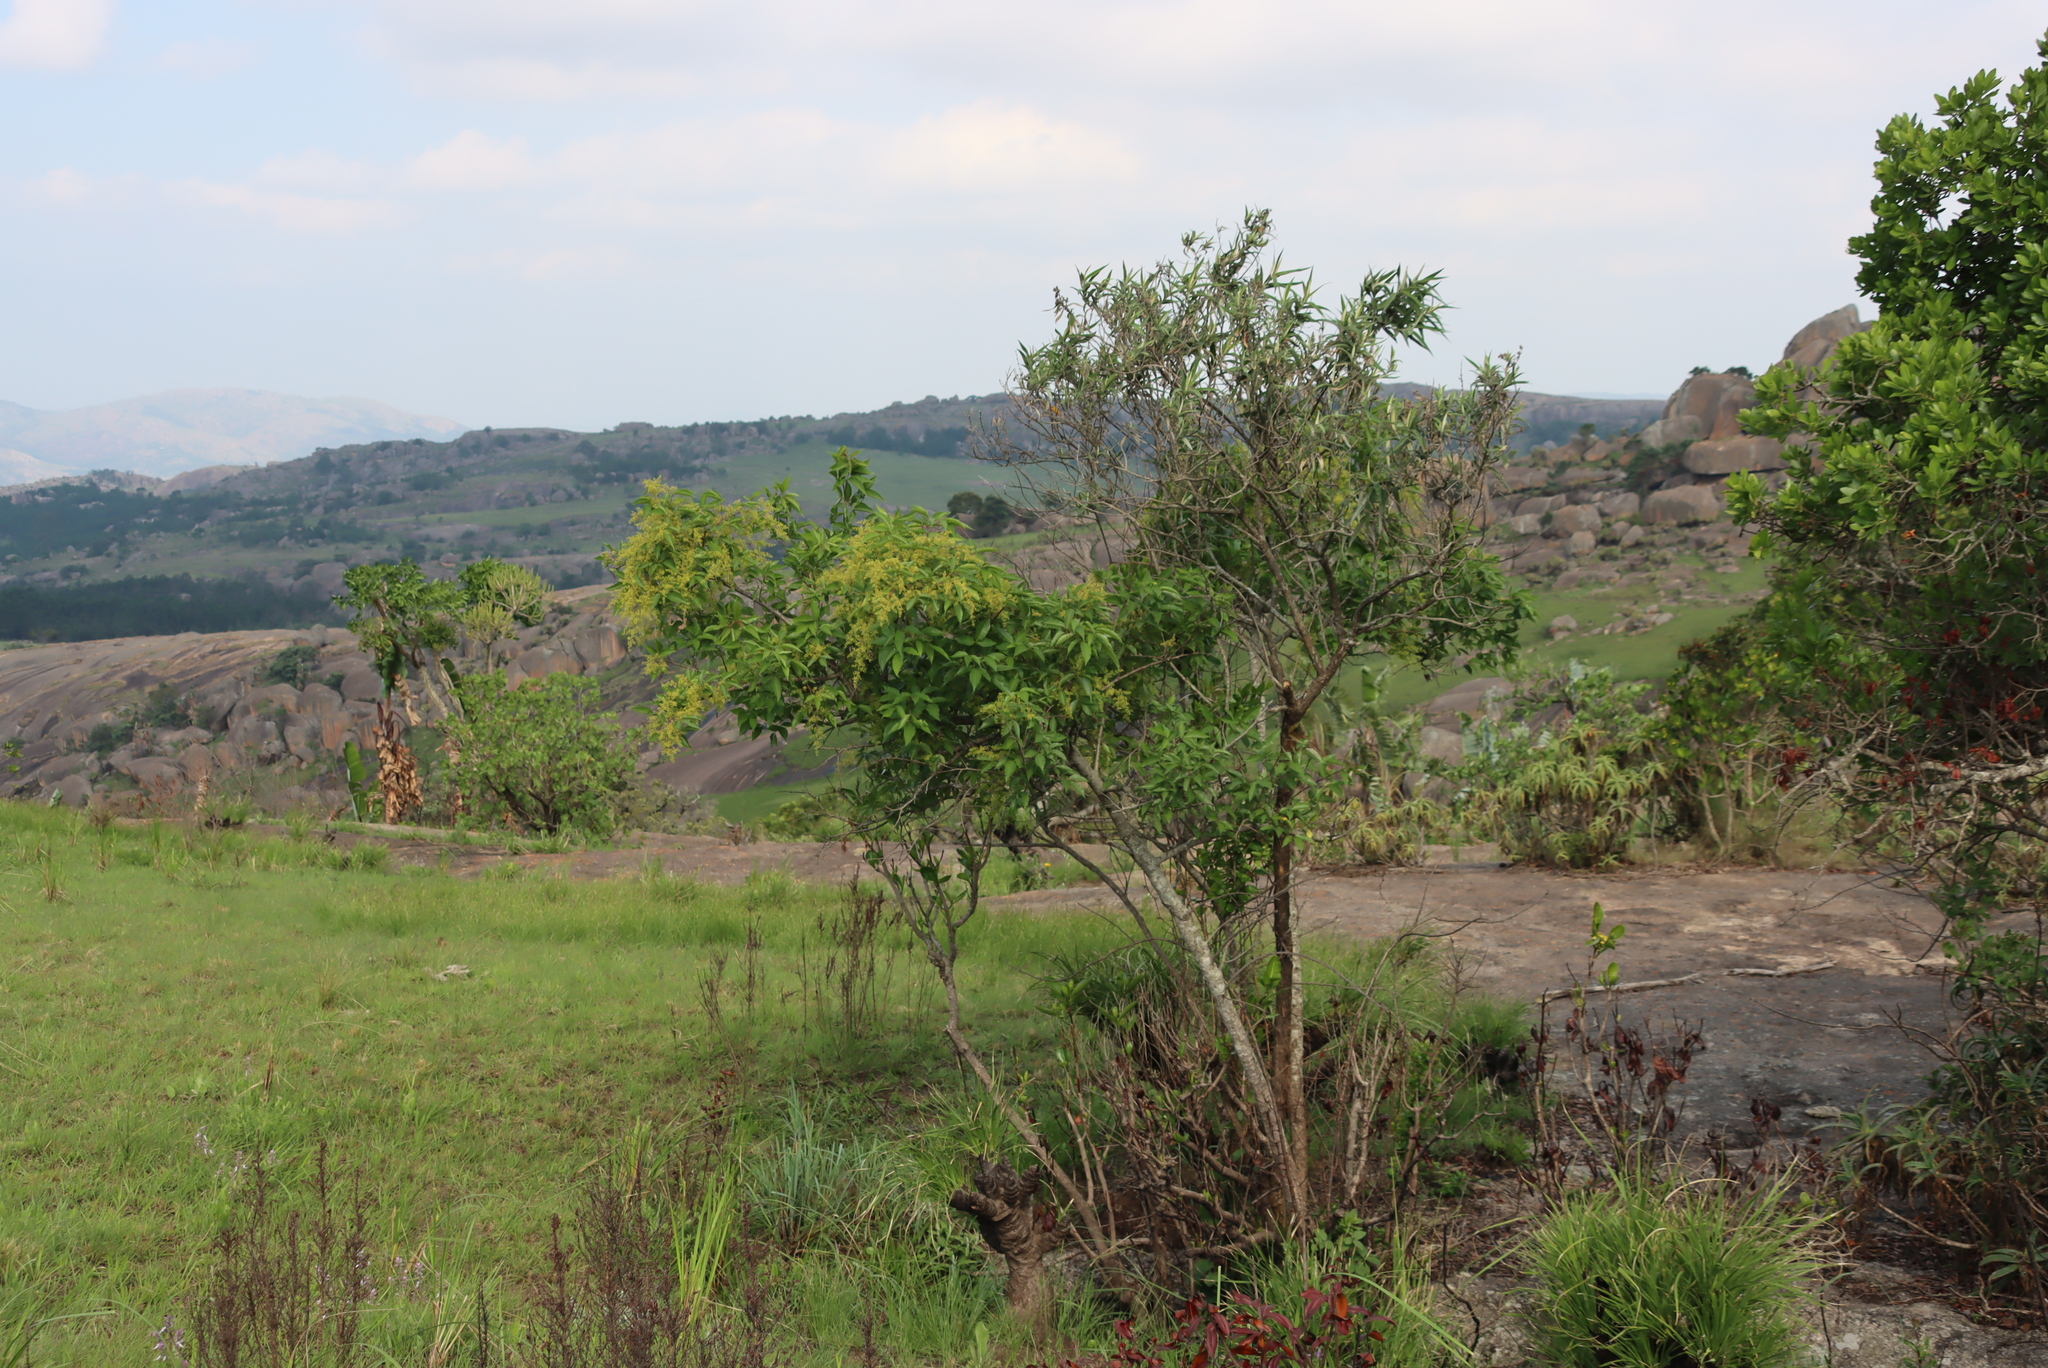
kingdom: Plantae
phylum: Tracheophyta
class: Magnoliopsida
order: Sapindales
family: Anacardiaceae
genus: Searsia
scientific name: Searsia chirindensis
